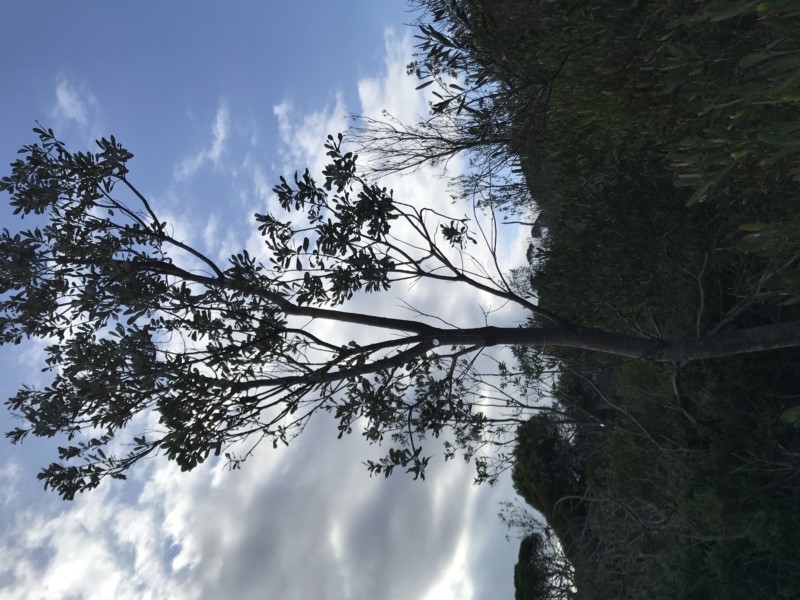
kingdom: Plantae
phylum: Tracheophyta
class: Magnoliopsida
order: Proteales
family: Proteaceae
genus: Banksia
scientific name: Banksia integrifolia
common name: White-honeysuckle
